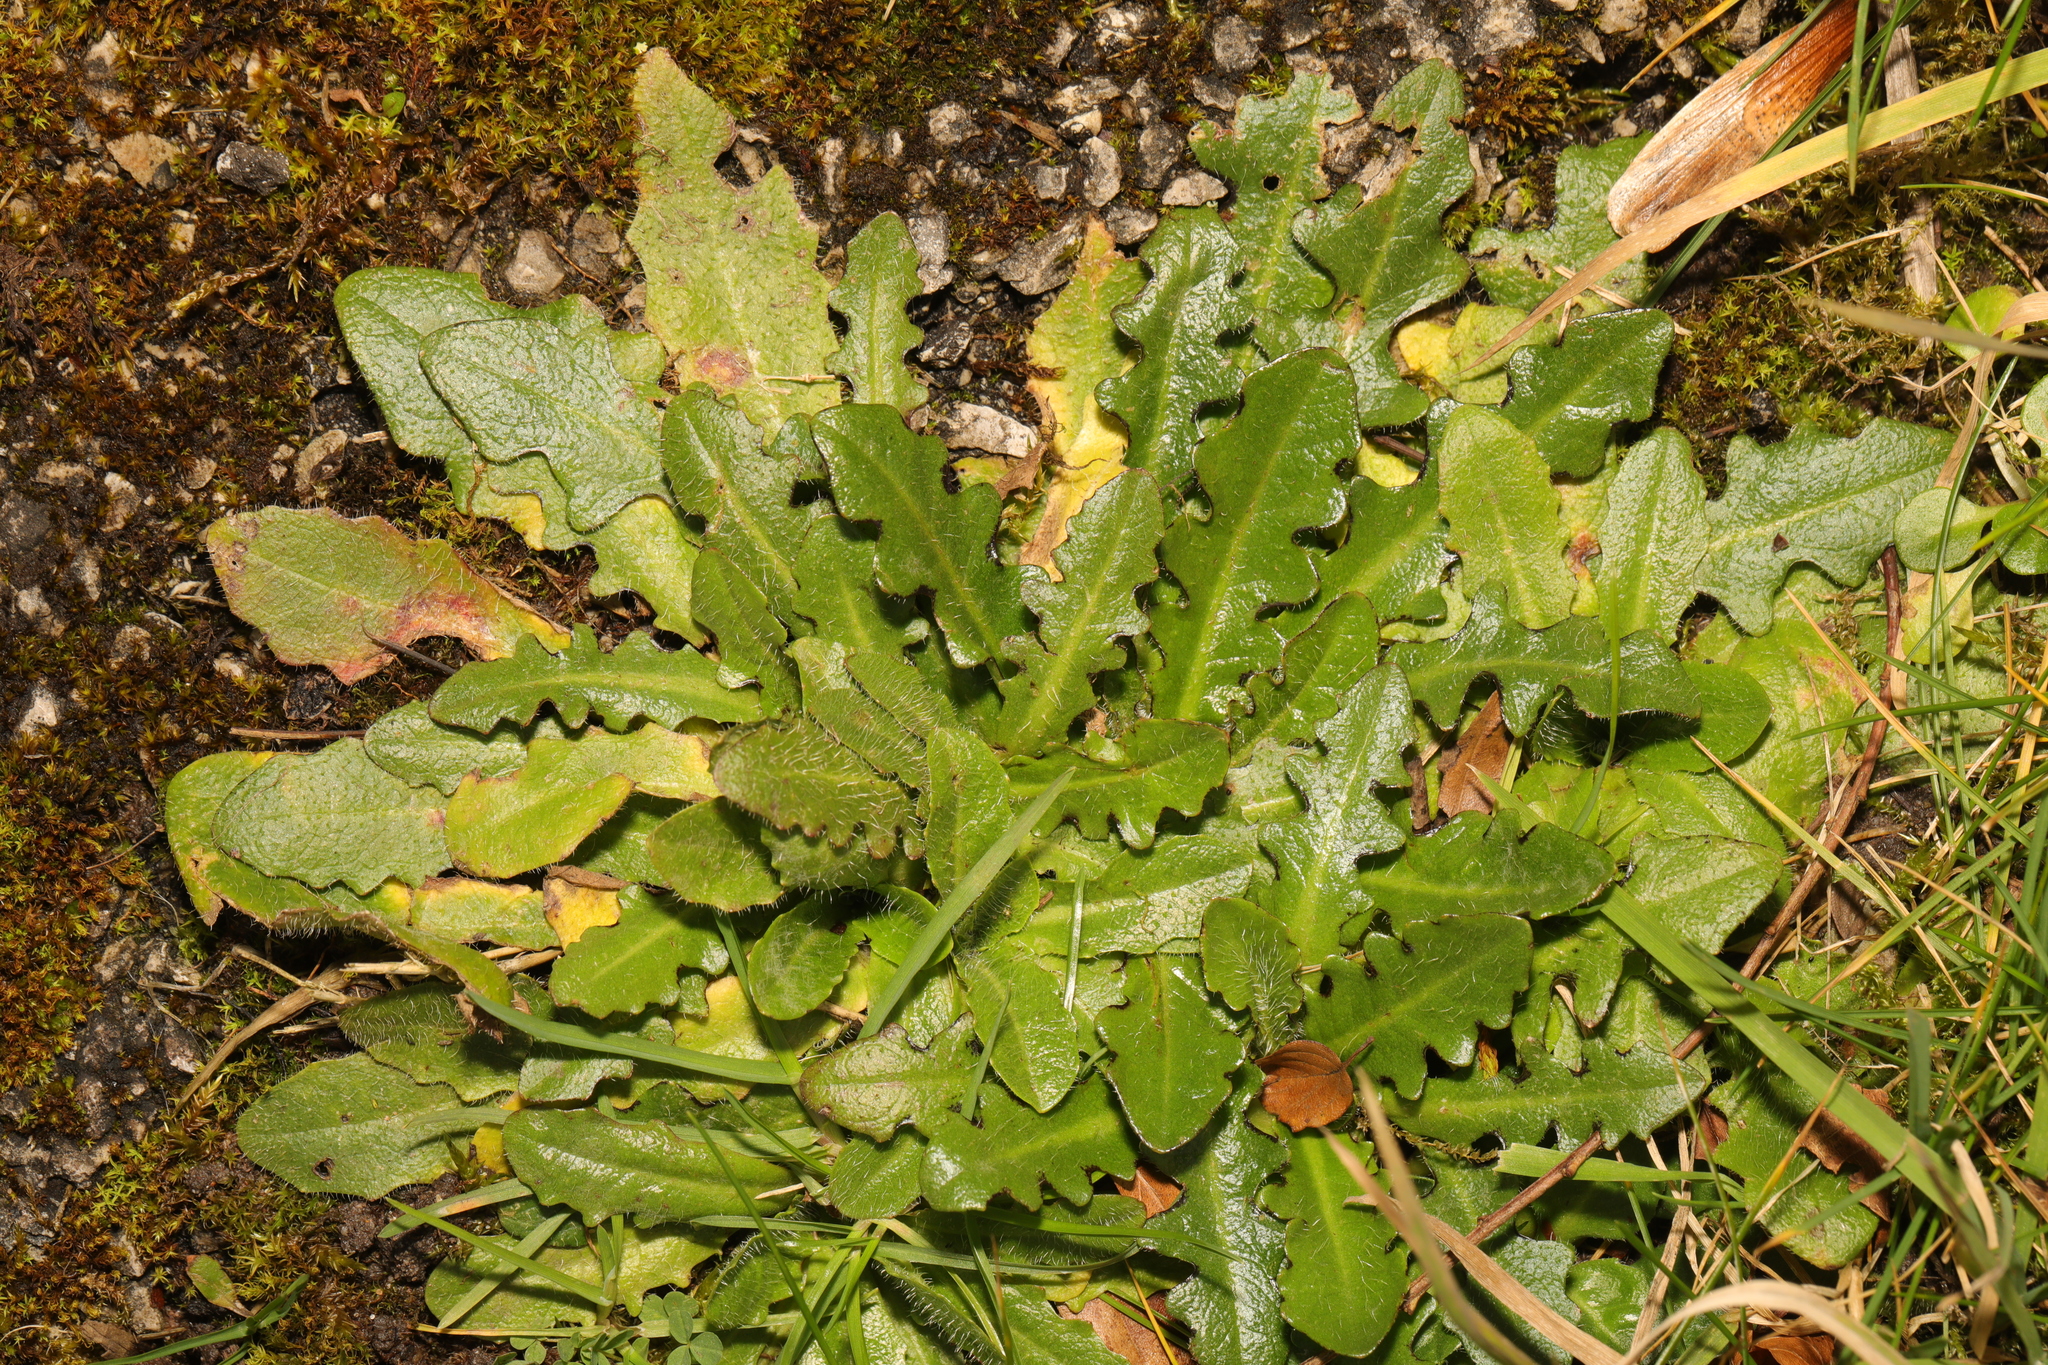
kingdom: Plantae
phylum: Tracheophyta
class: Magnoliopsida
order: Asterales
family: Asteraceae
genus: Hypochaeris
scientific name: Hypochaeris radicata
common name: Flatweed
